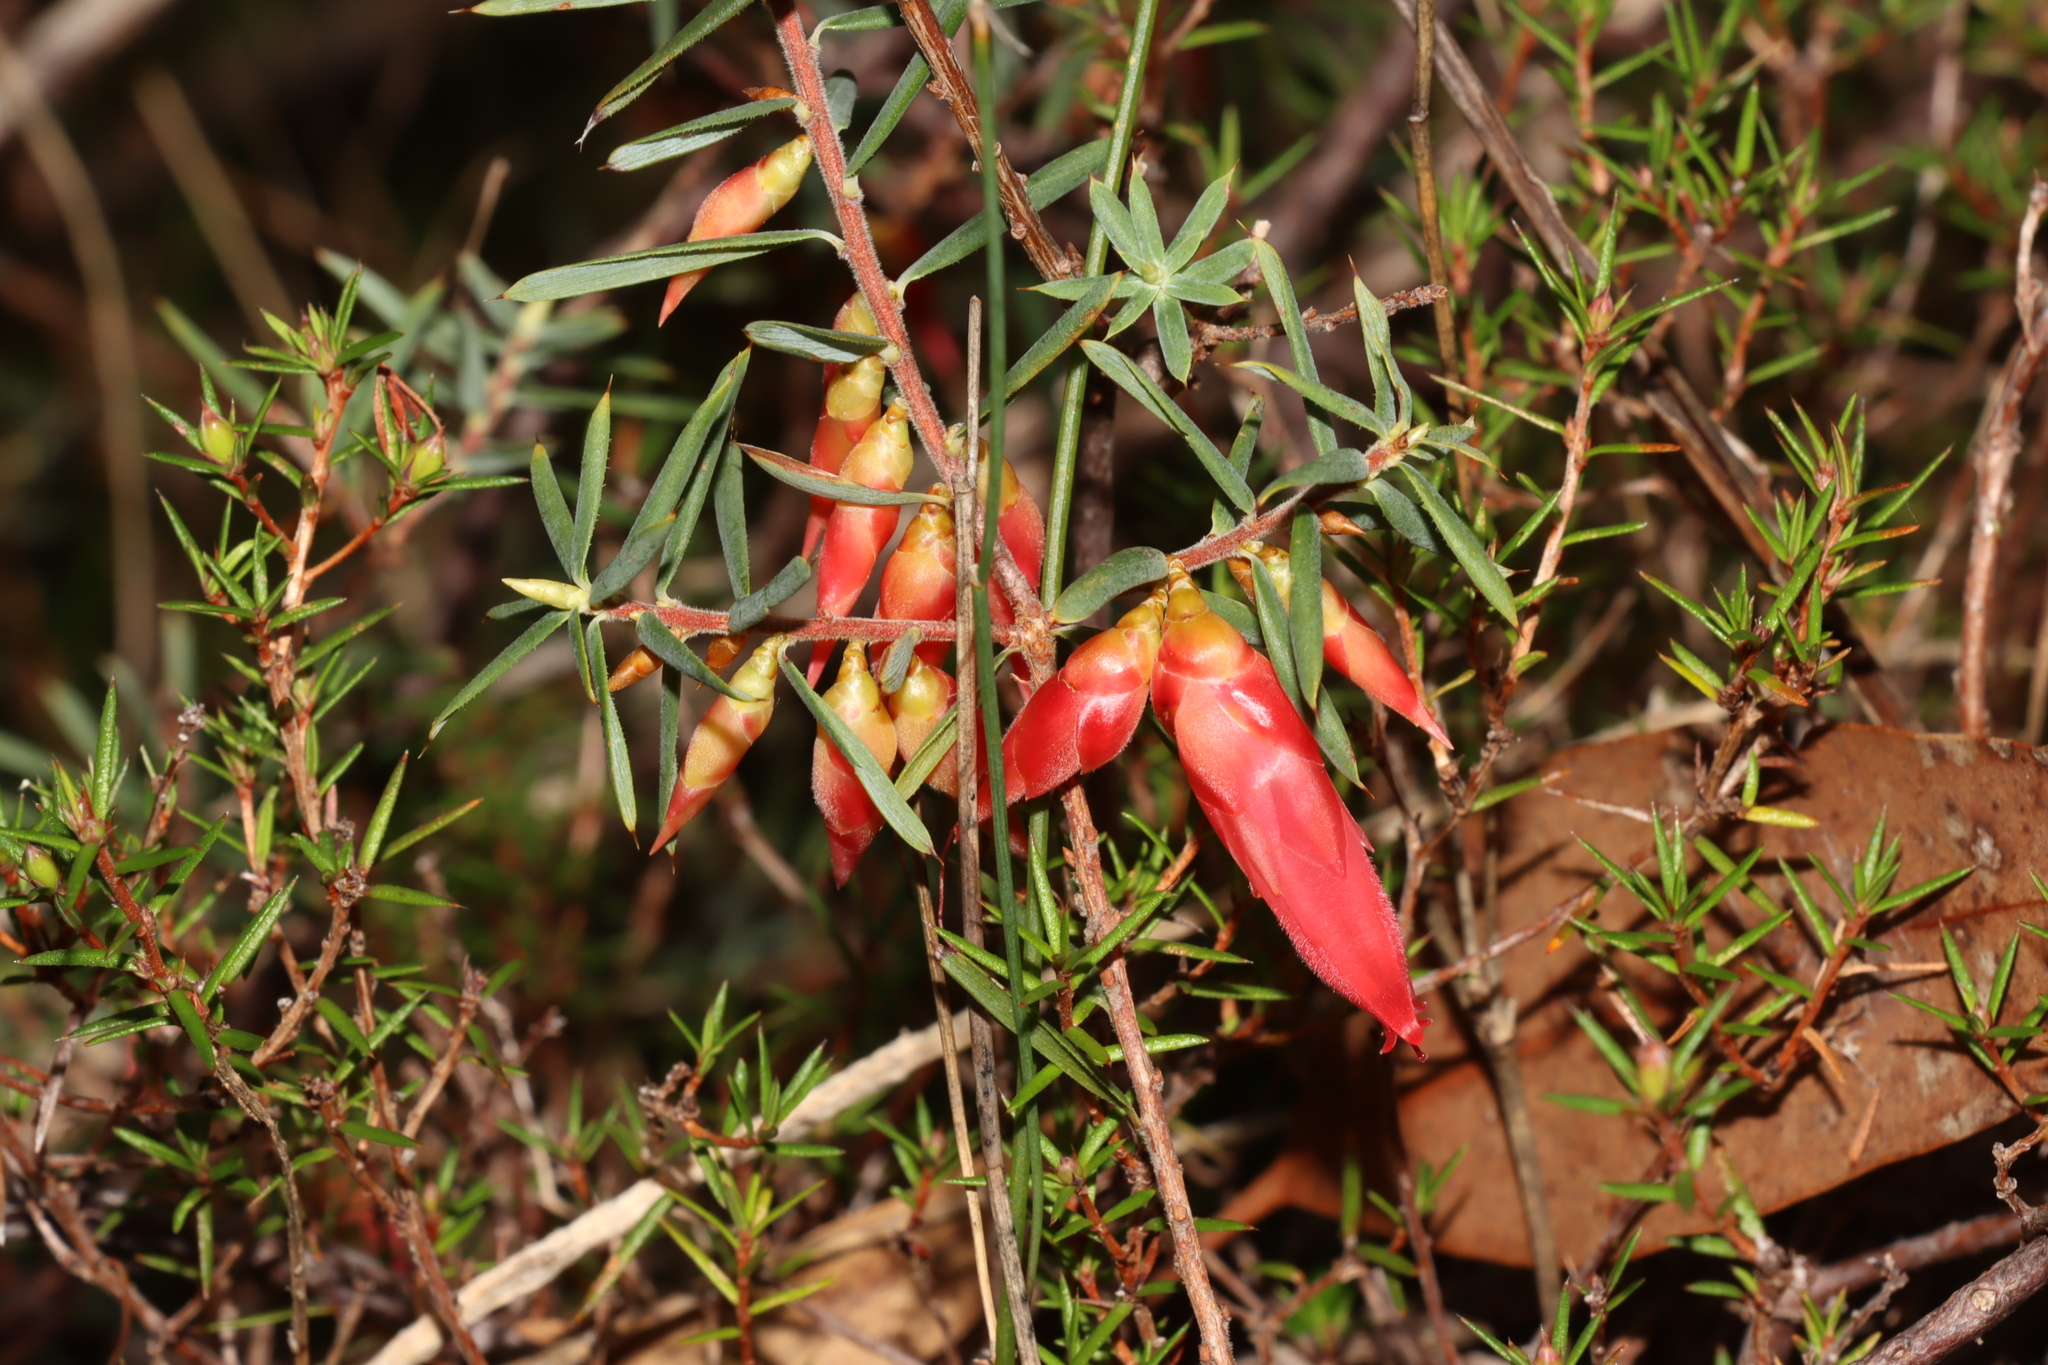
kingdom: Plantae
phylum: Tracheophyta
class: Magnoliopsida
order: Ericales
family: Ericaceae
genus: Stenanthera
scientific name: Stenanthera conostephioides
